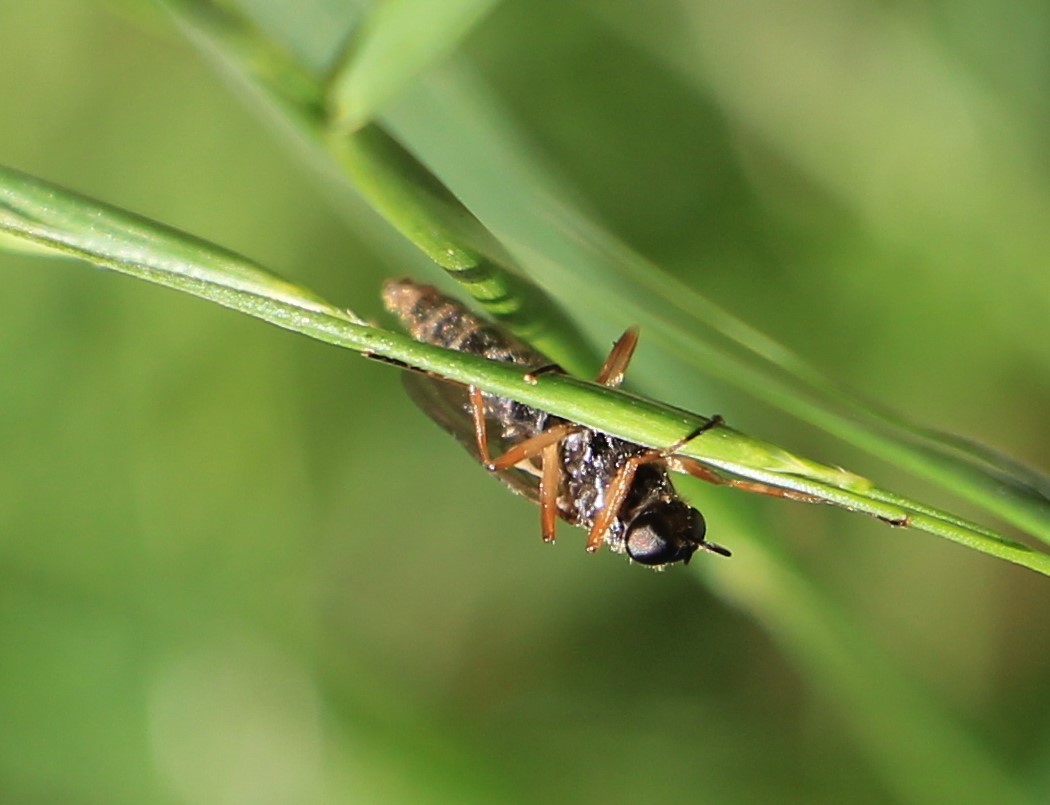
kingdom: Animalia
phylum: Arthropoda
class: Insecta
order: Diptera
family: Stratiomyidae
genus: Inopus
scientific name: Inopus rubriceps
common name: Soldier fly
